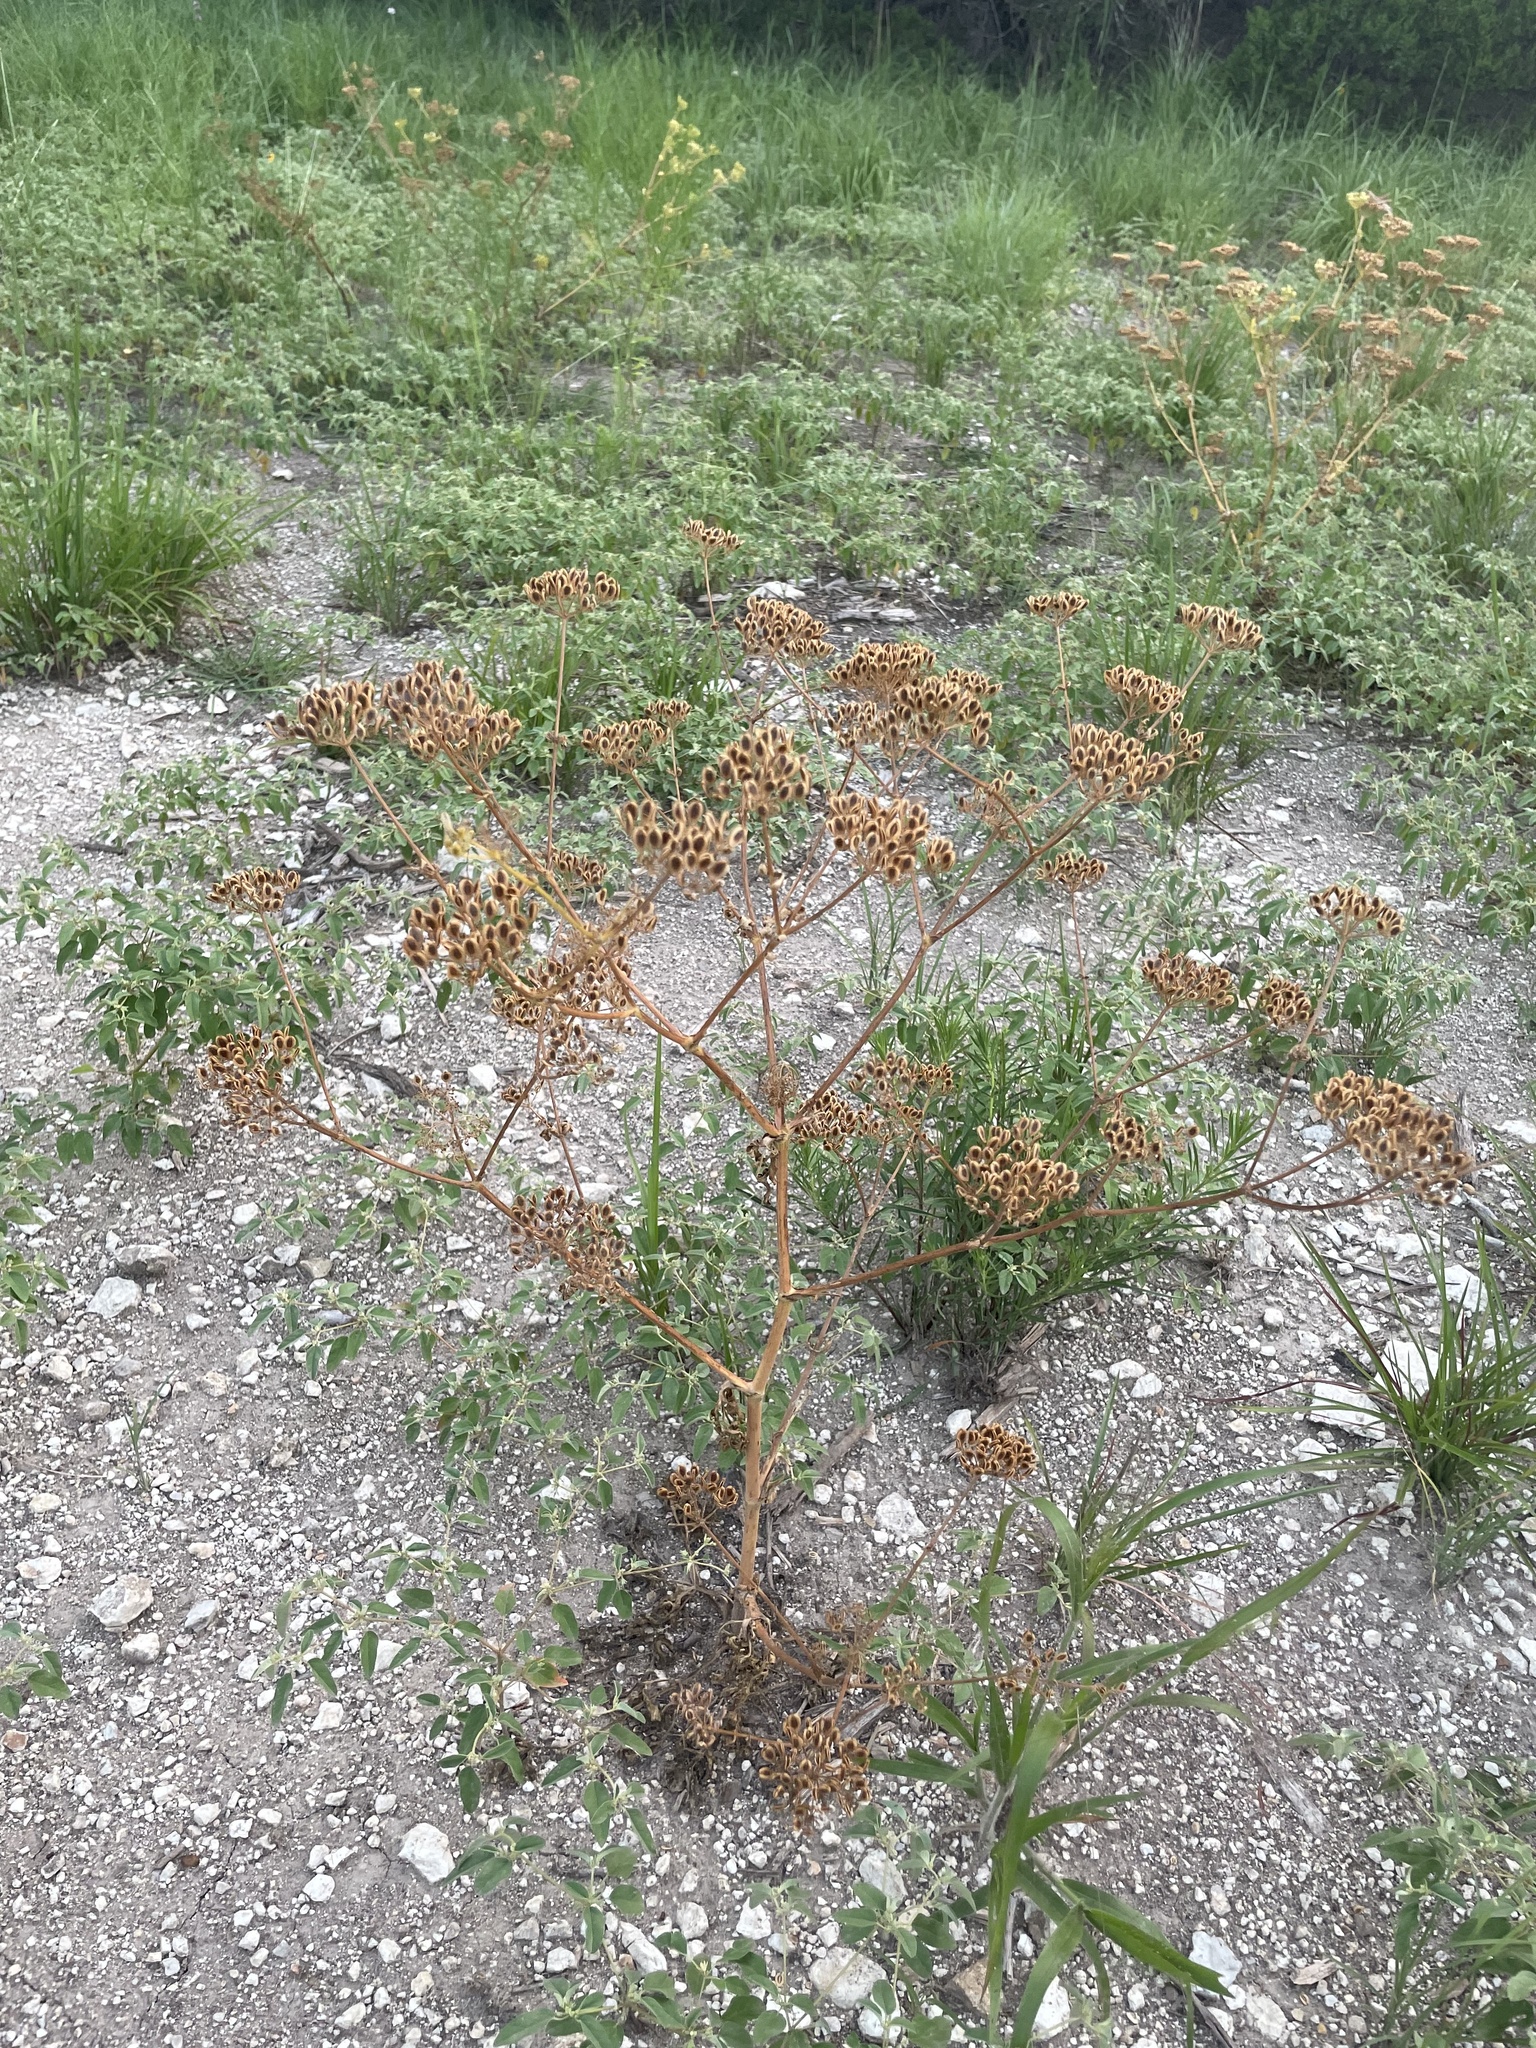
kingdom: Plantae
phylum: Tracheophyta
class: Magnoliopsida
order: Apiales
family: Apiaceae
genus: Polytaenia
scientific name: Polytaenia texana
